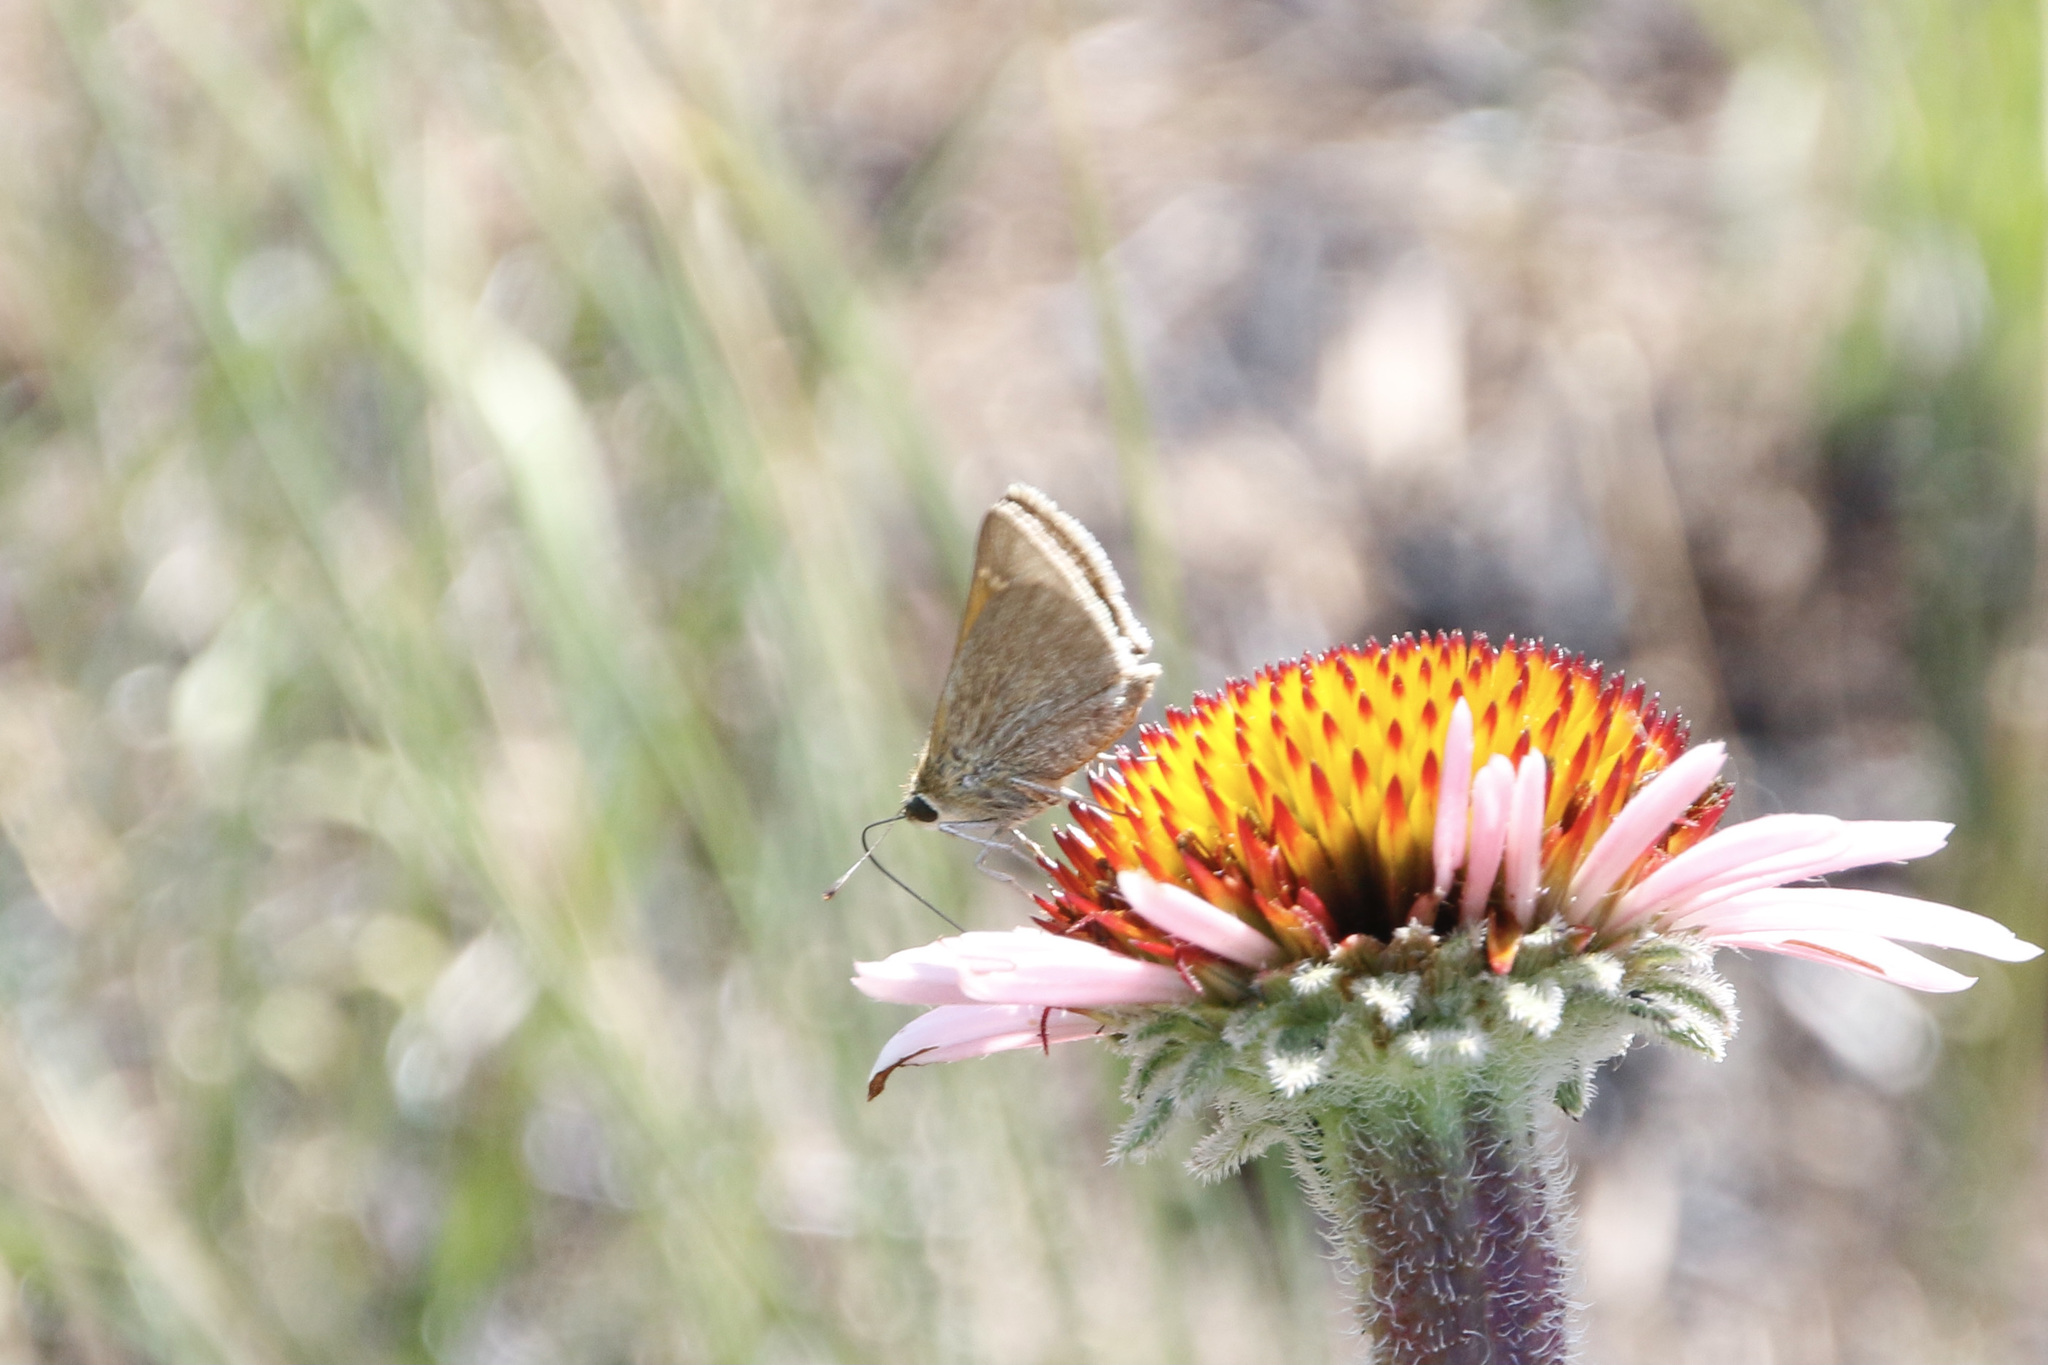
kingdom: Animalia
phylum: Arthropoda
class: Insecta
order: Lepidoptera
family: Hesperiidae
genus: Polites
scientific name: Polites themistocles
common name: Tawny-edged skipper
